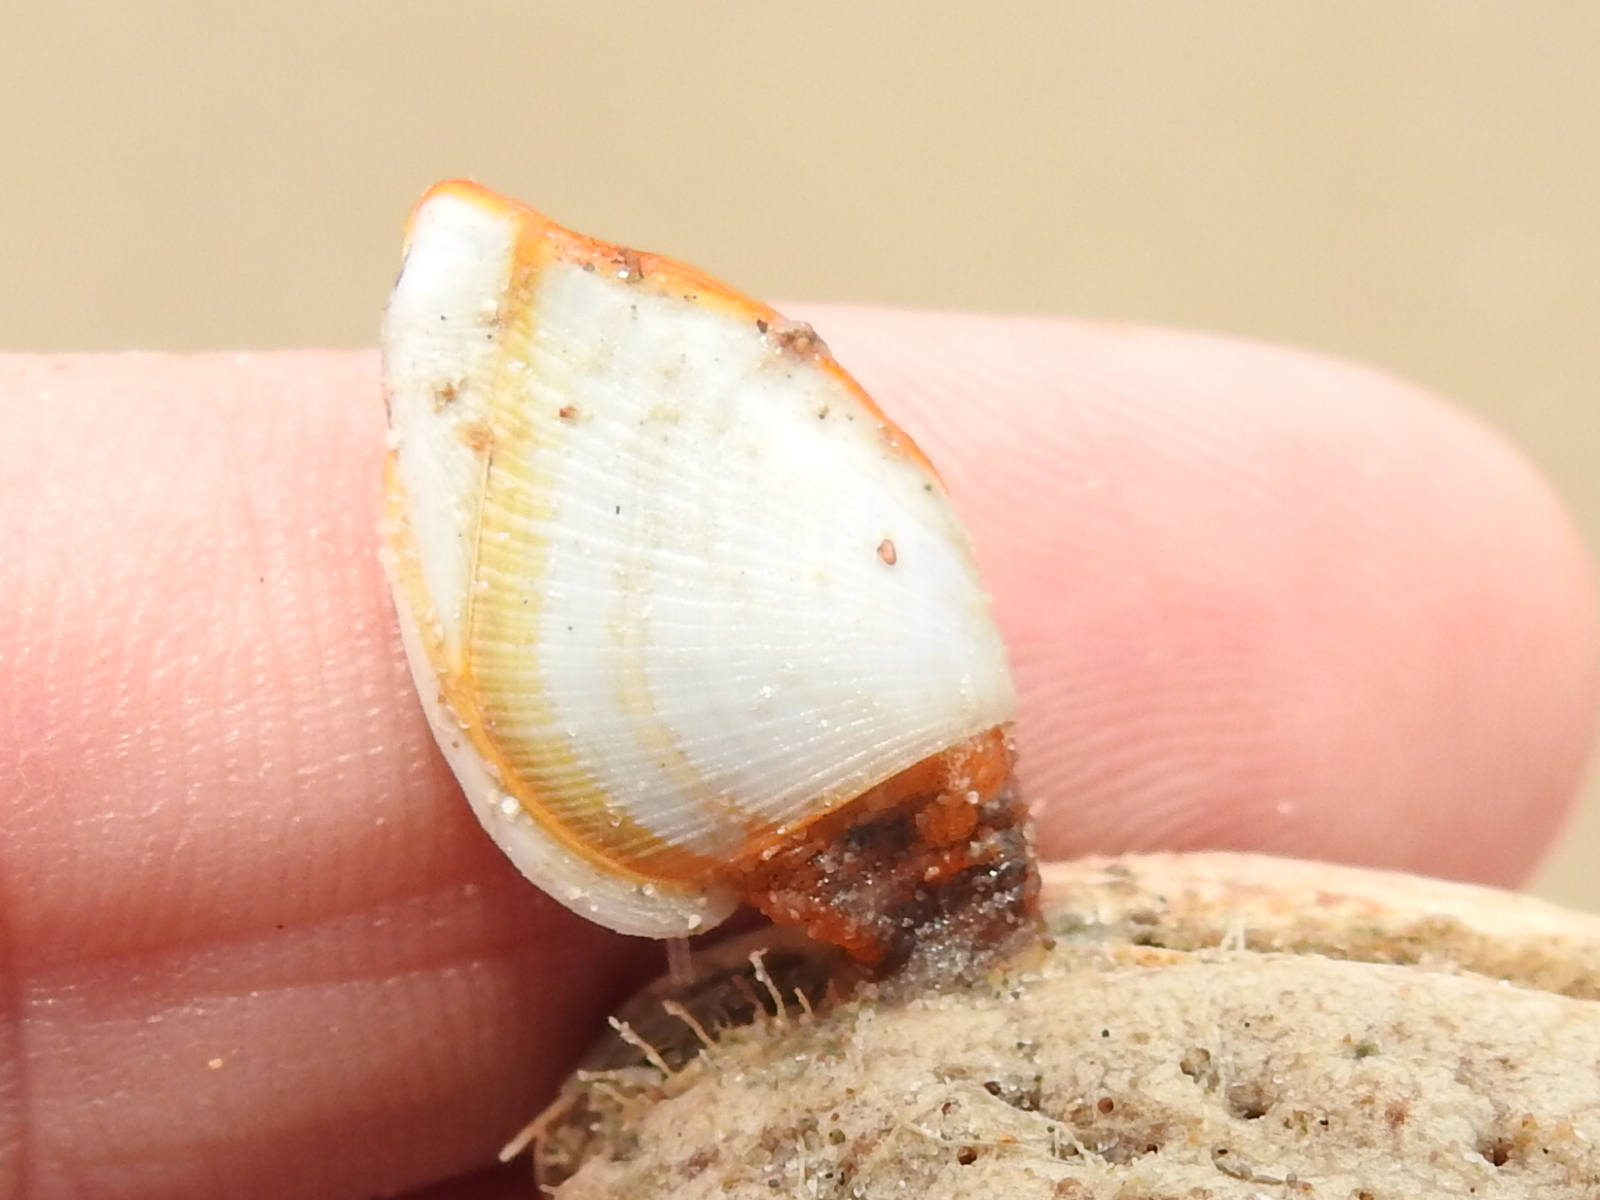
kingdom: Animalia
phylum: Arthropoda
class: Maxillopoda
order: Pedunculata
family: Lepadidae
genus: Lepas
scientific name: Lepas anserifera
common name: Goose barnacle
